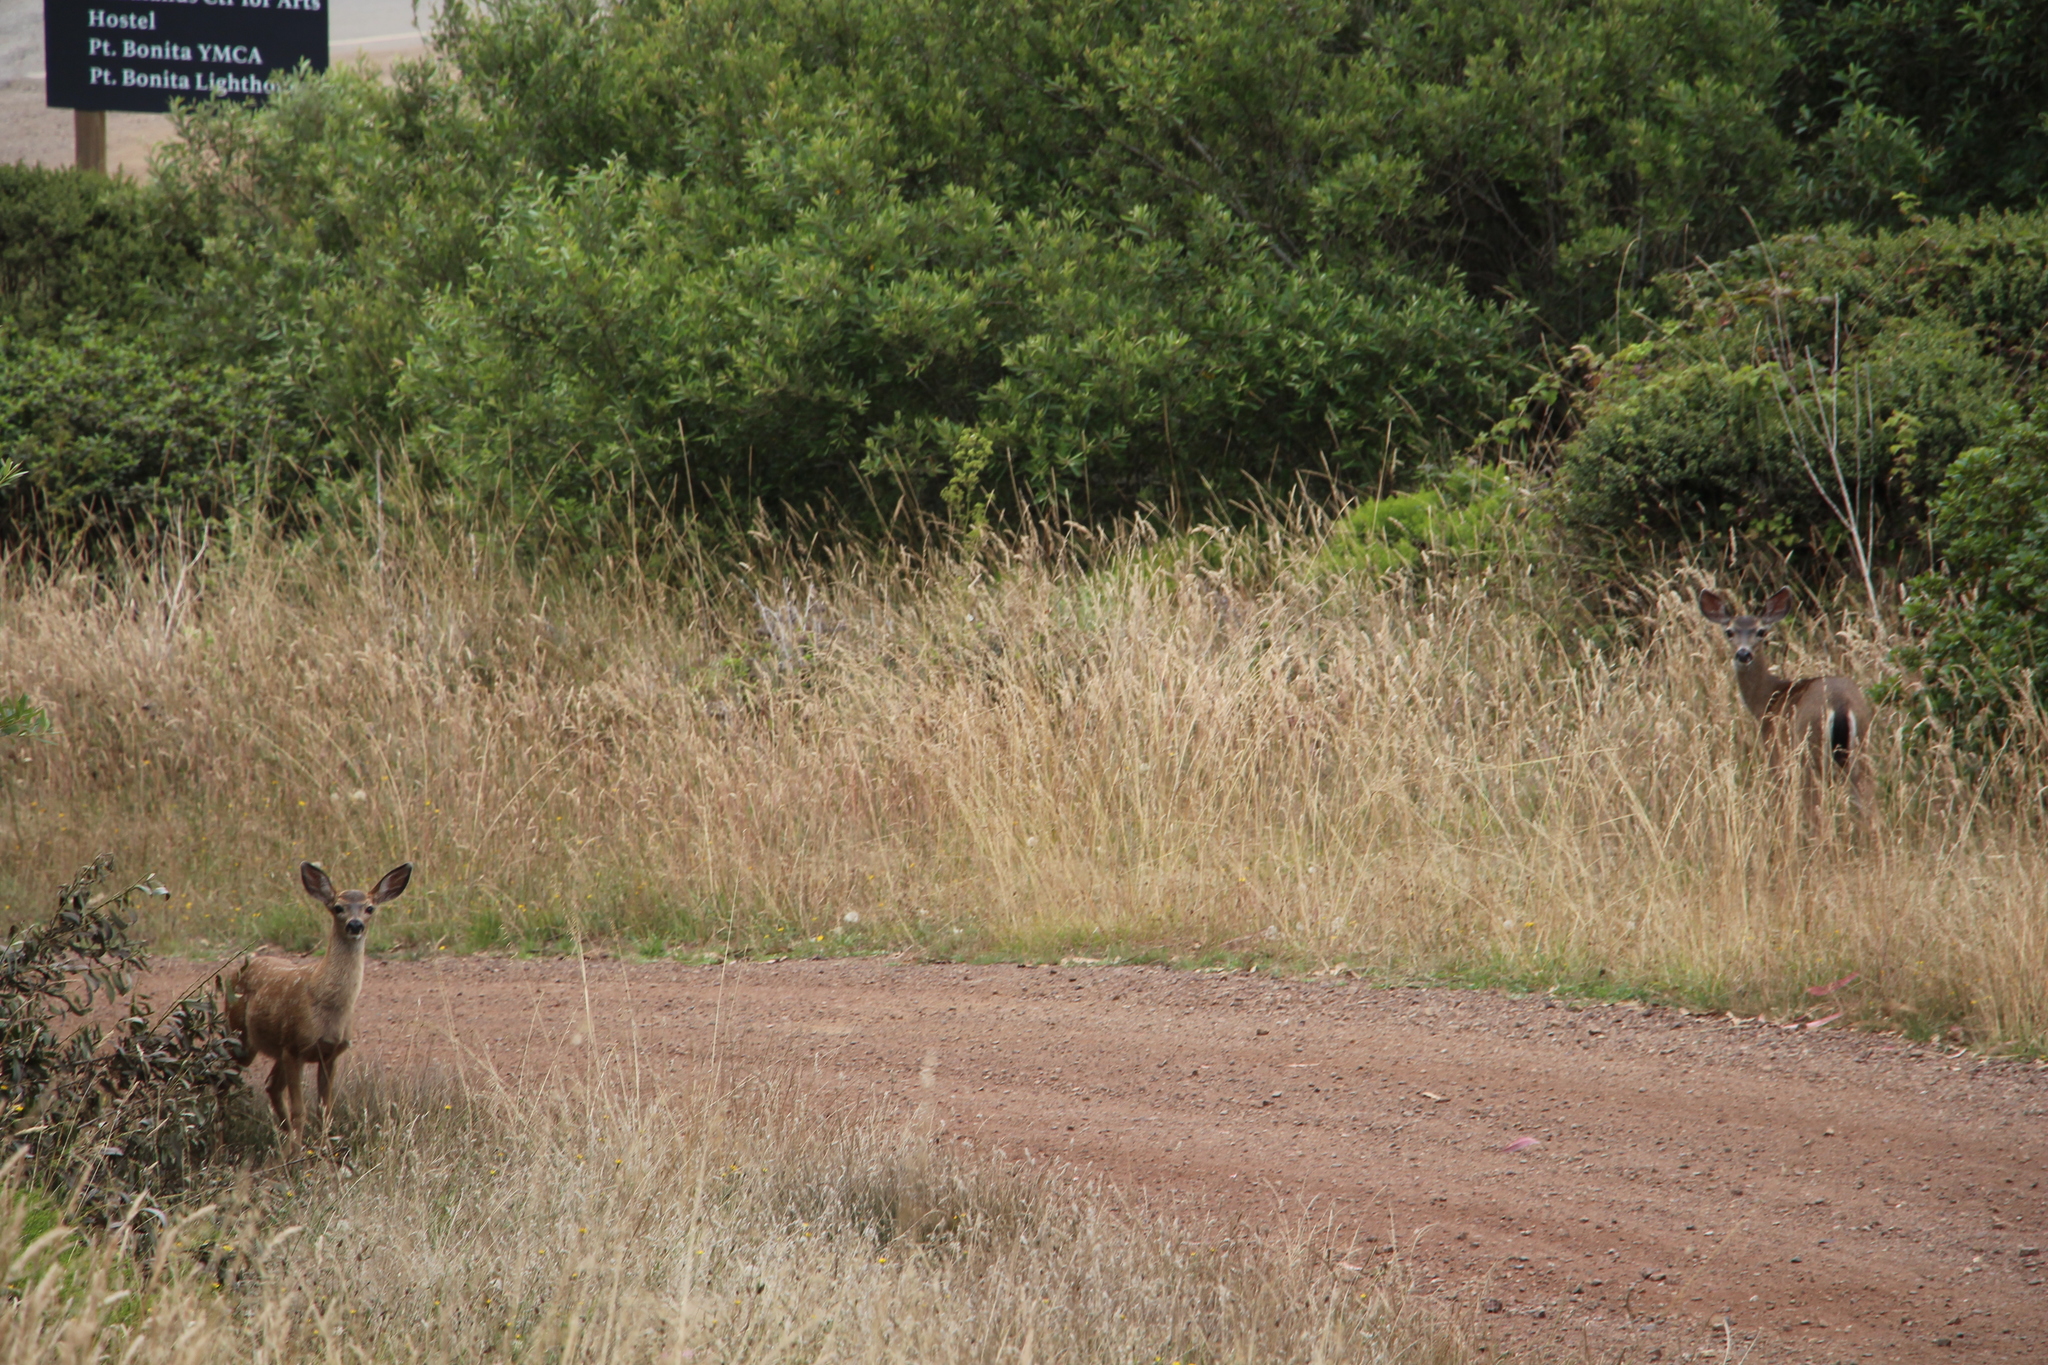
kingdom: Animalia
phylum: Chordata
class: Mammalia
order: Artiodactyla
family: Cervidae
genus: Odocoileus
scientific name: Odocoileus hemionus
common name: Mule deer
